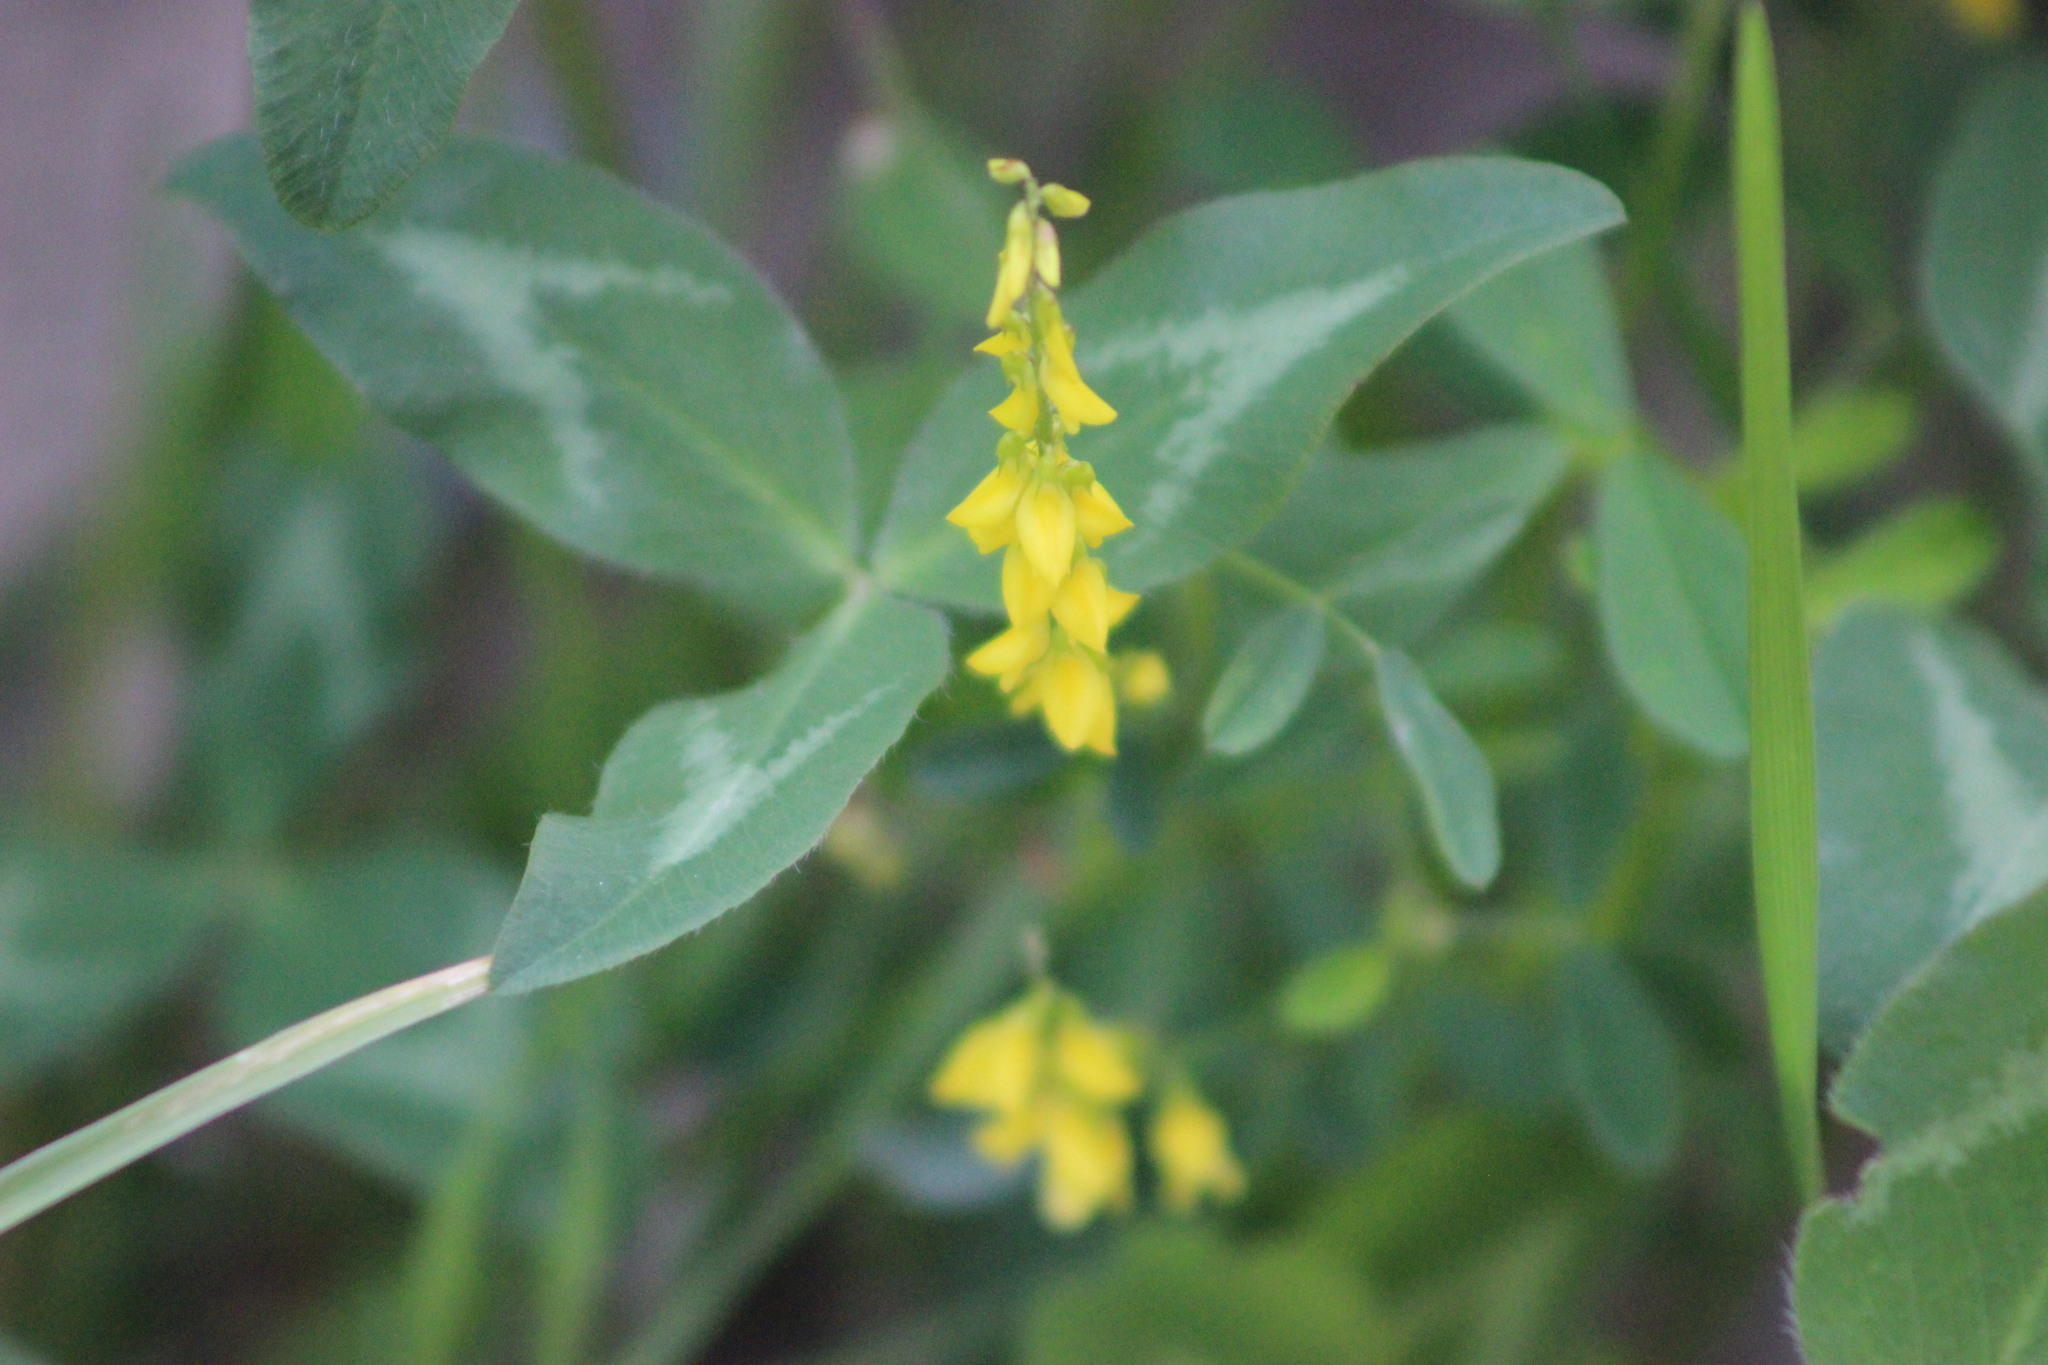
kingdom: Plantae
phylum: Tracheophyta
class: Magnoliopsida
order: Fabales
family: Fabaceae
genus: Melilotus
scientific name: Melilotus officinalis
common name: Sweetclover
